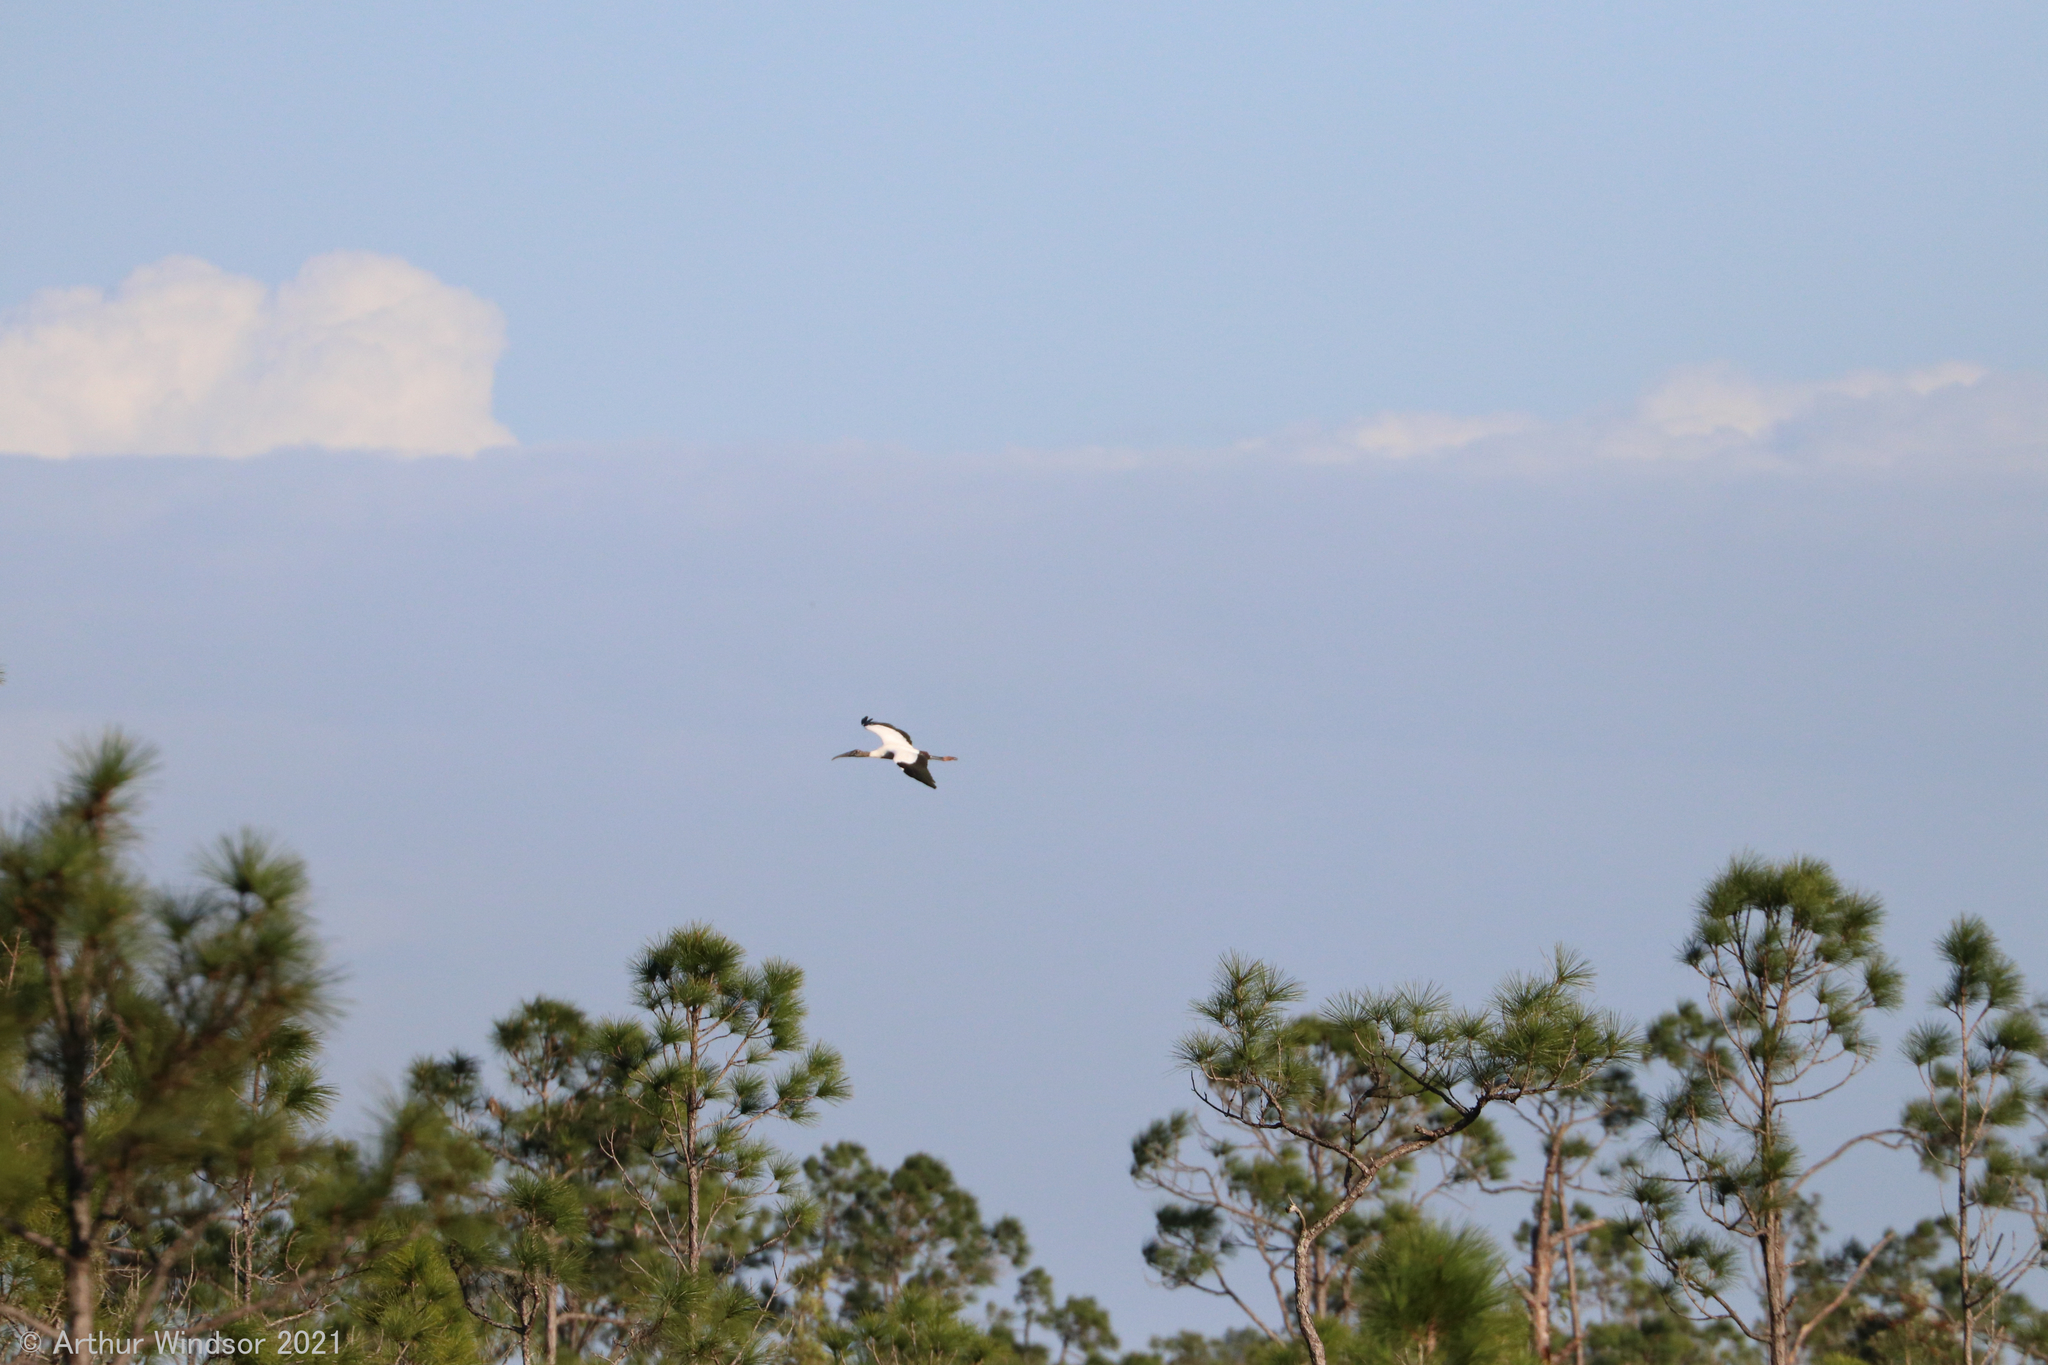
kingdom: Animalia
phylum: Chordata
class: Aves
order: Ciconiiformes
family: Ciconiidae
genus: Mycteria
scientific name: Mycteria americana
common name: Wood stork
